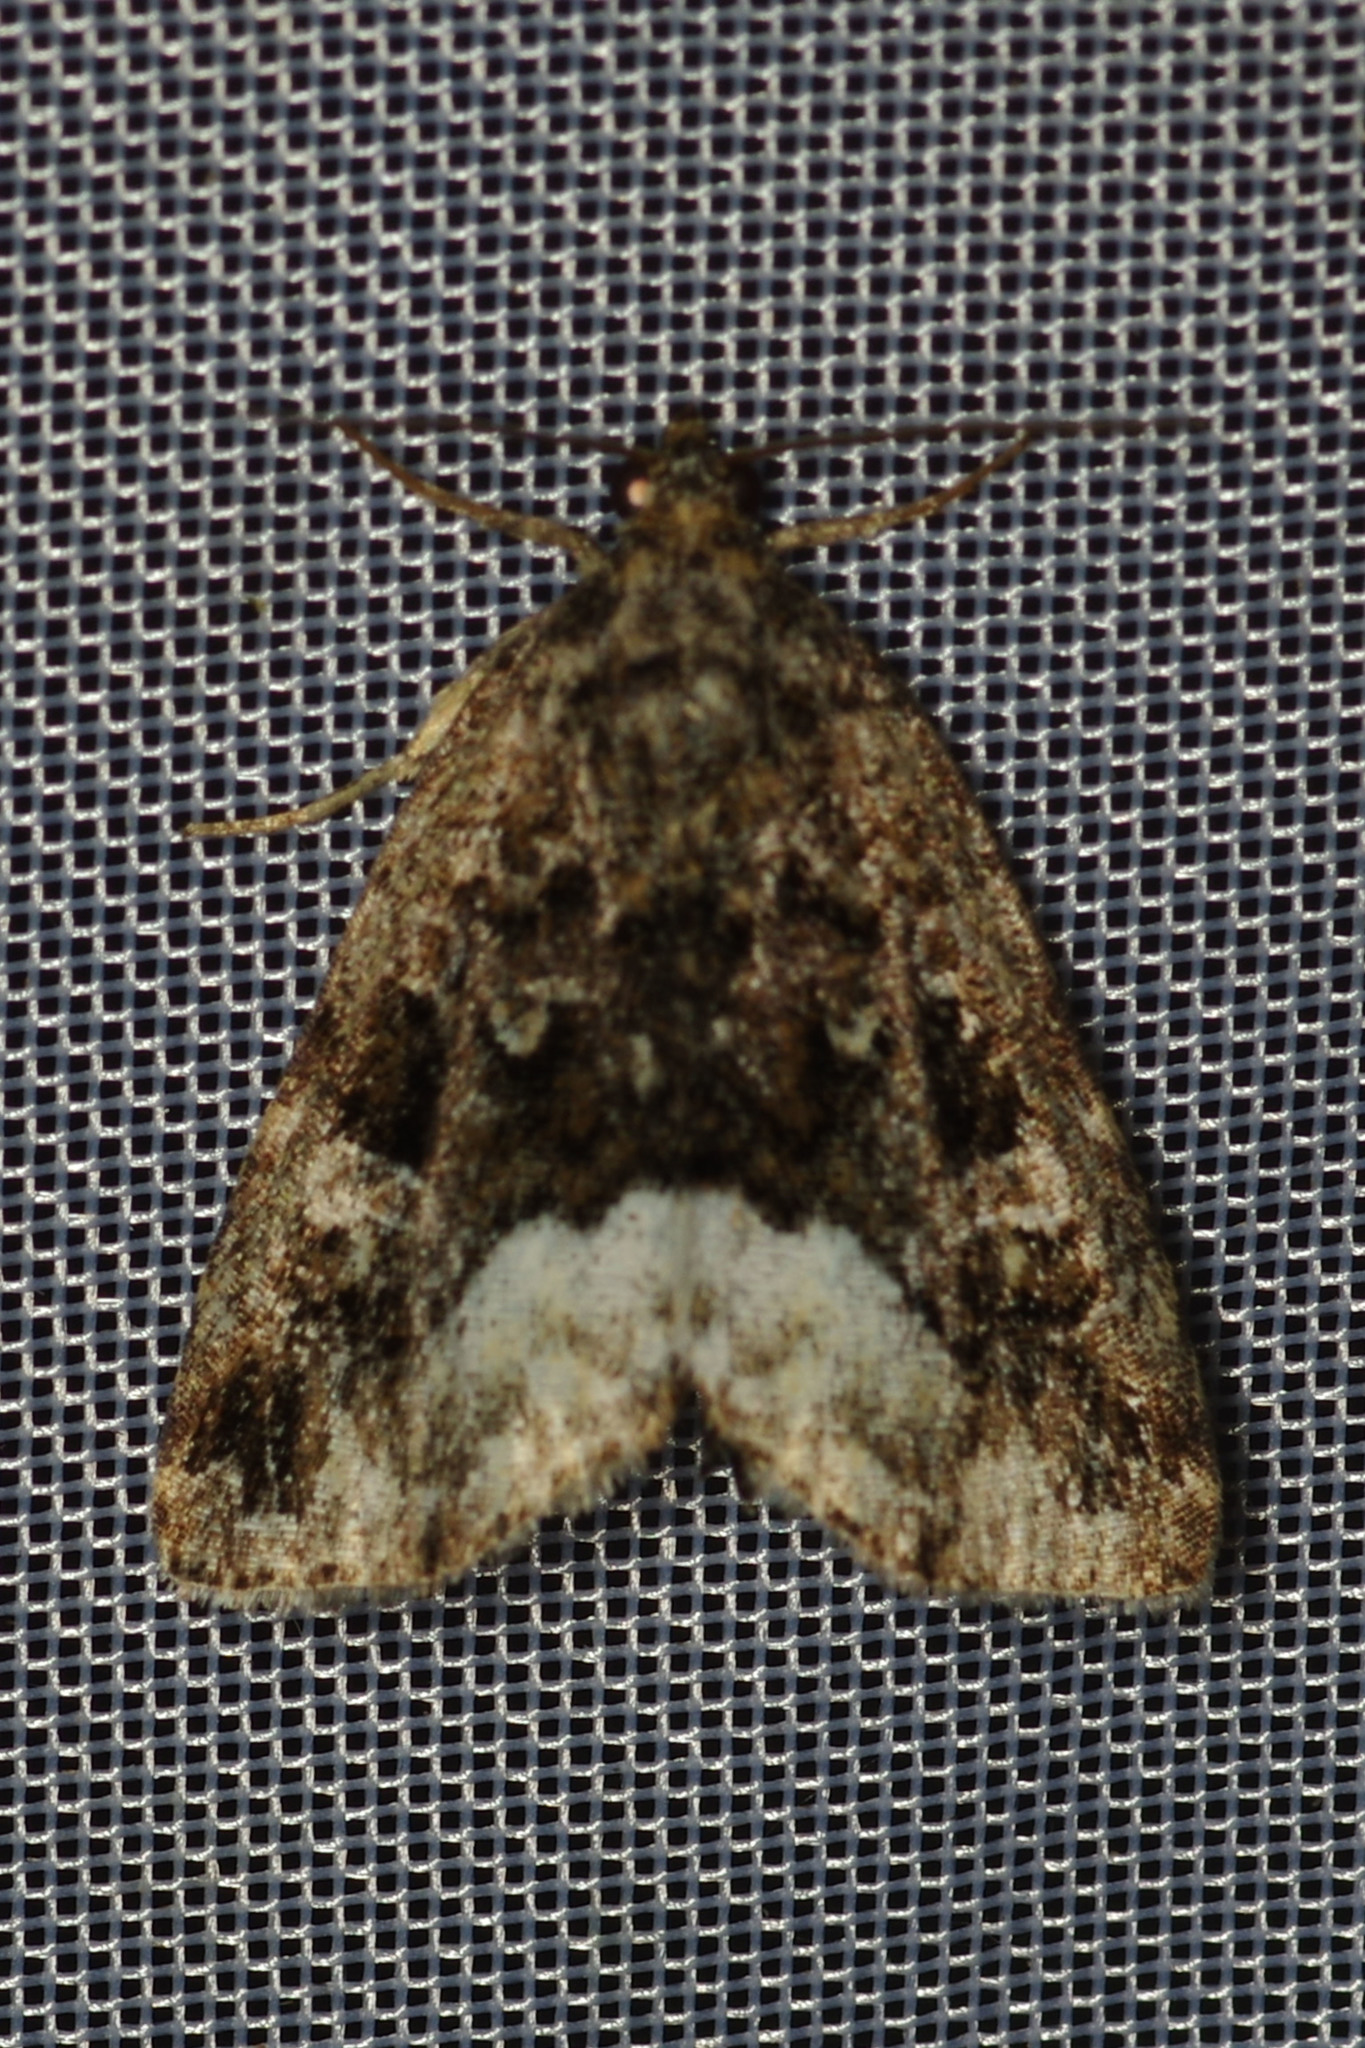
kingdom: Animalia
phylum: Arthropoda
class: Insecta
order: Lepidoptera
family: Noctuidae
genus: Deltote
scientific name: Deltote pygarga
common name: Marbled white spot
